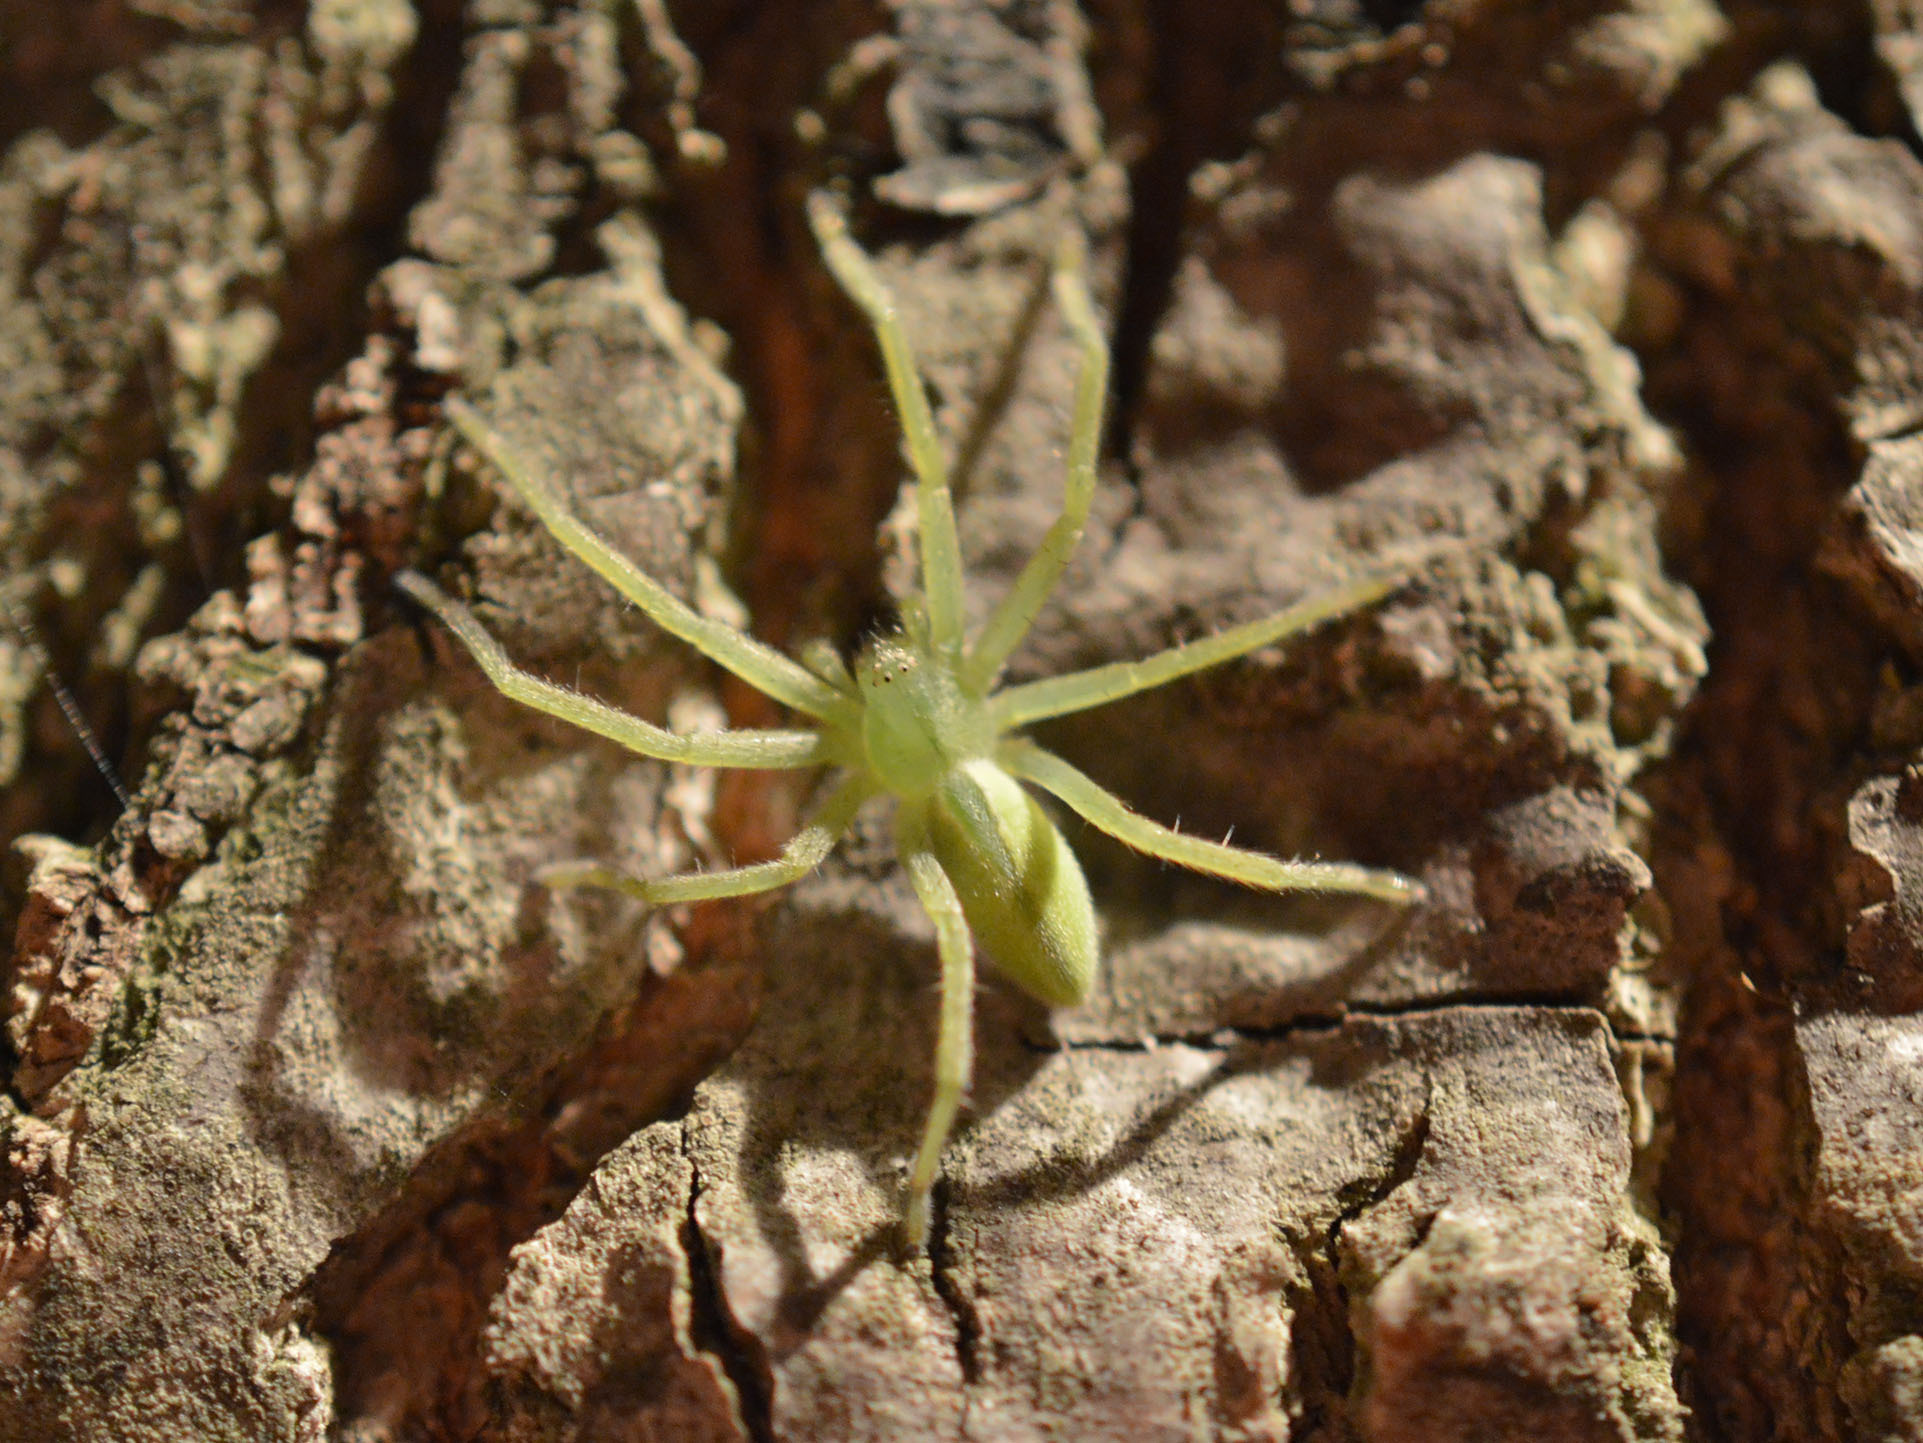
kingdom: Animalia
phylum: Arthropoda
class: Arachnida
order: Araneae
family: Sparassidae
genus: Micrommata
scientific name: Micrommata virescens
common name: Green spider
